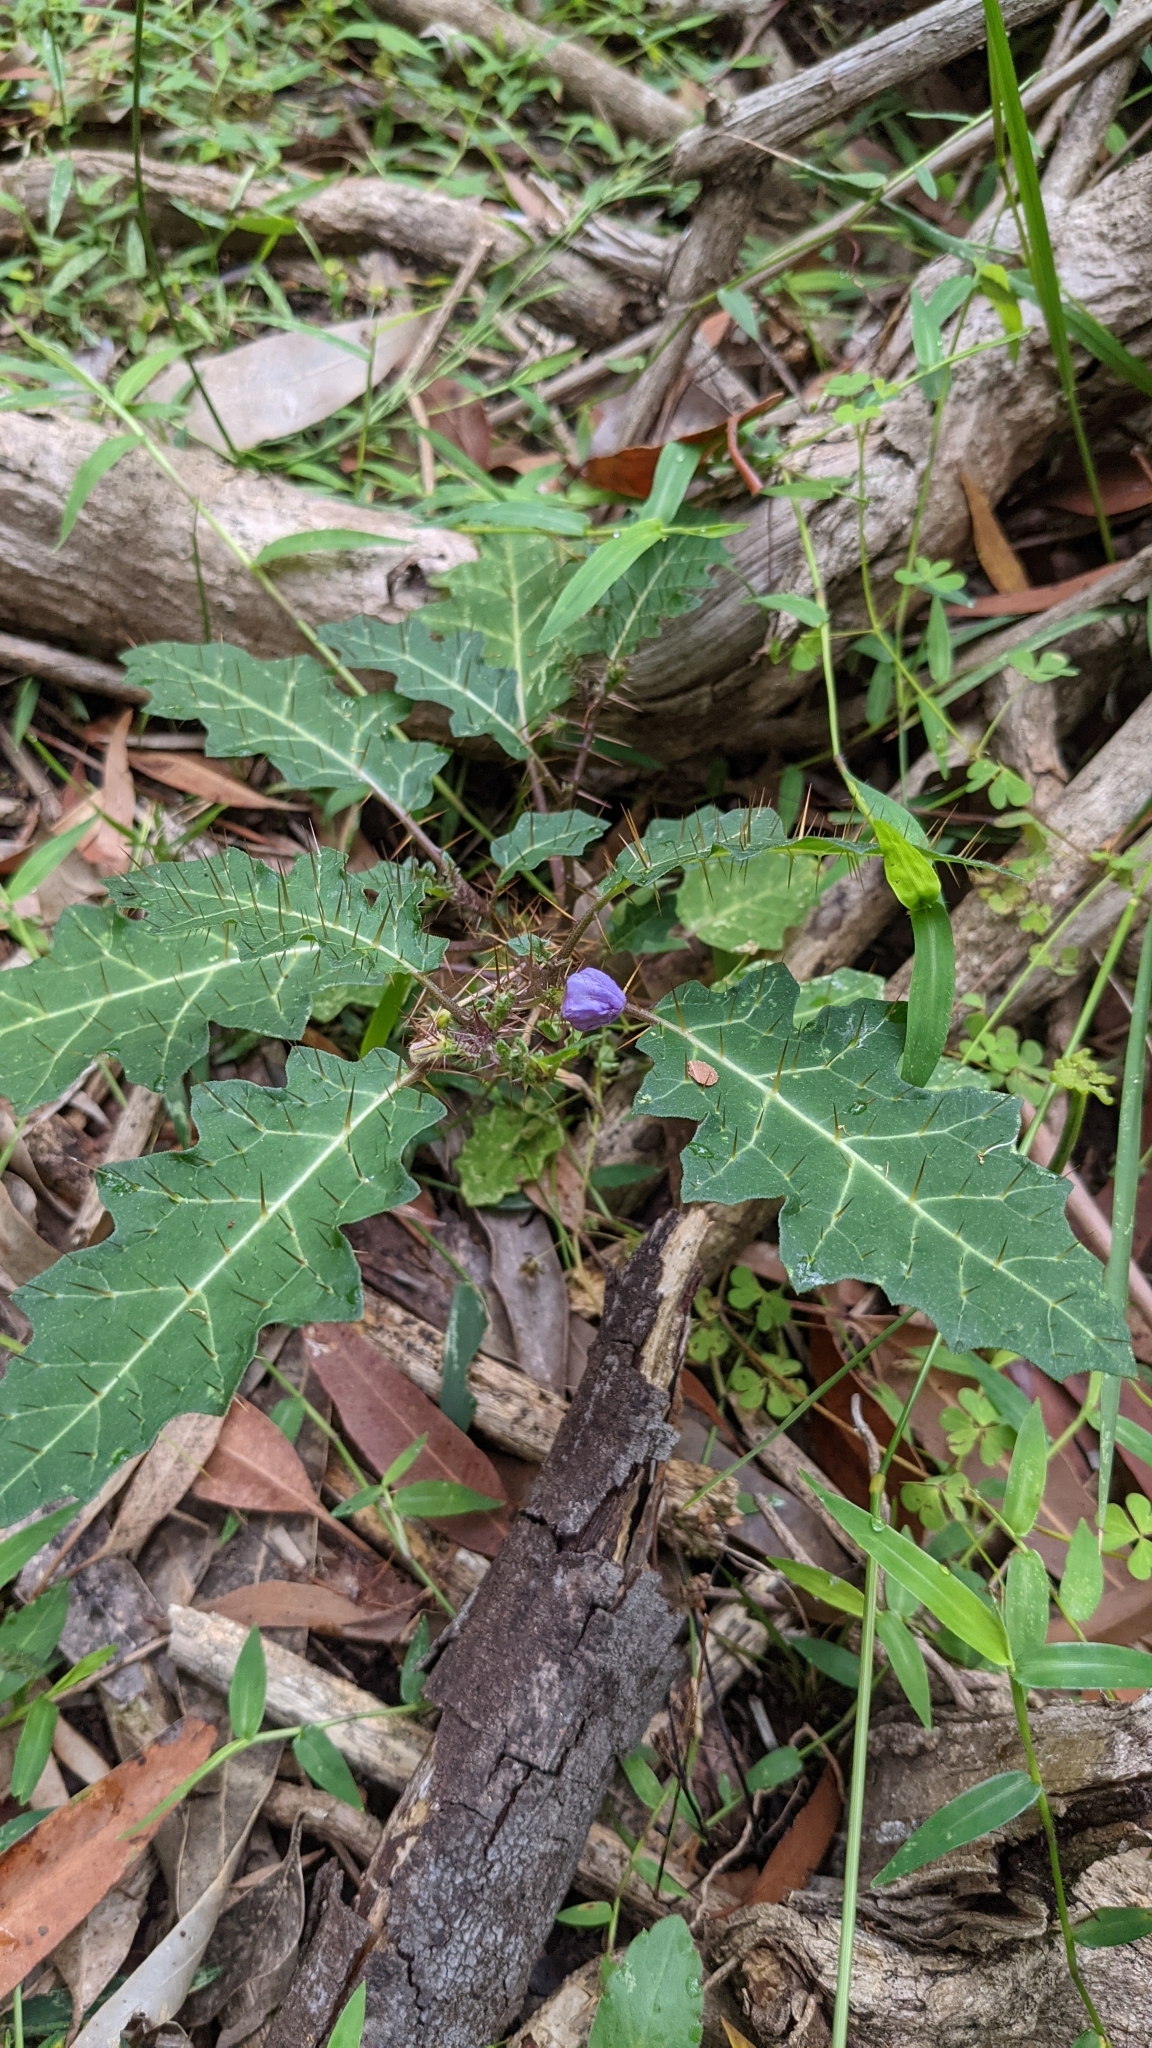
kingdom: Plantae
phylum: Tracheophyta
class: Magnoliopsida
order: Solanales
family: Solanaceae
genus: Solanum
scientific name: Solanum prinophyllum
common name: Forest nightshade
